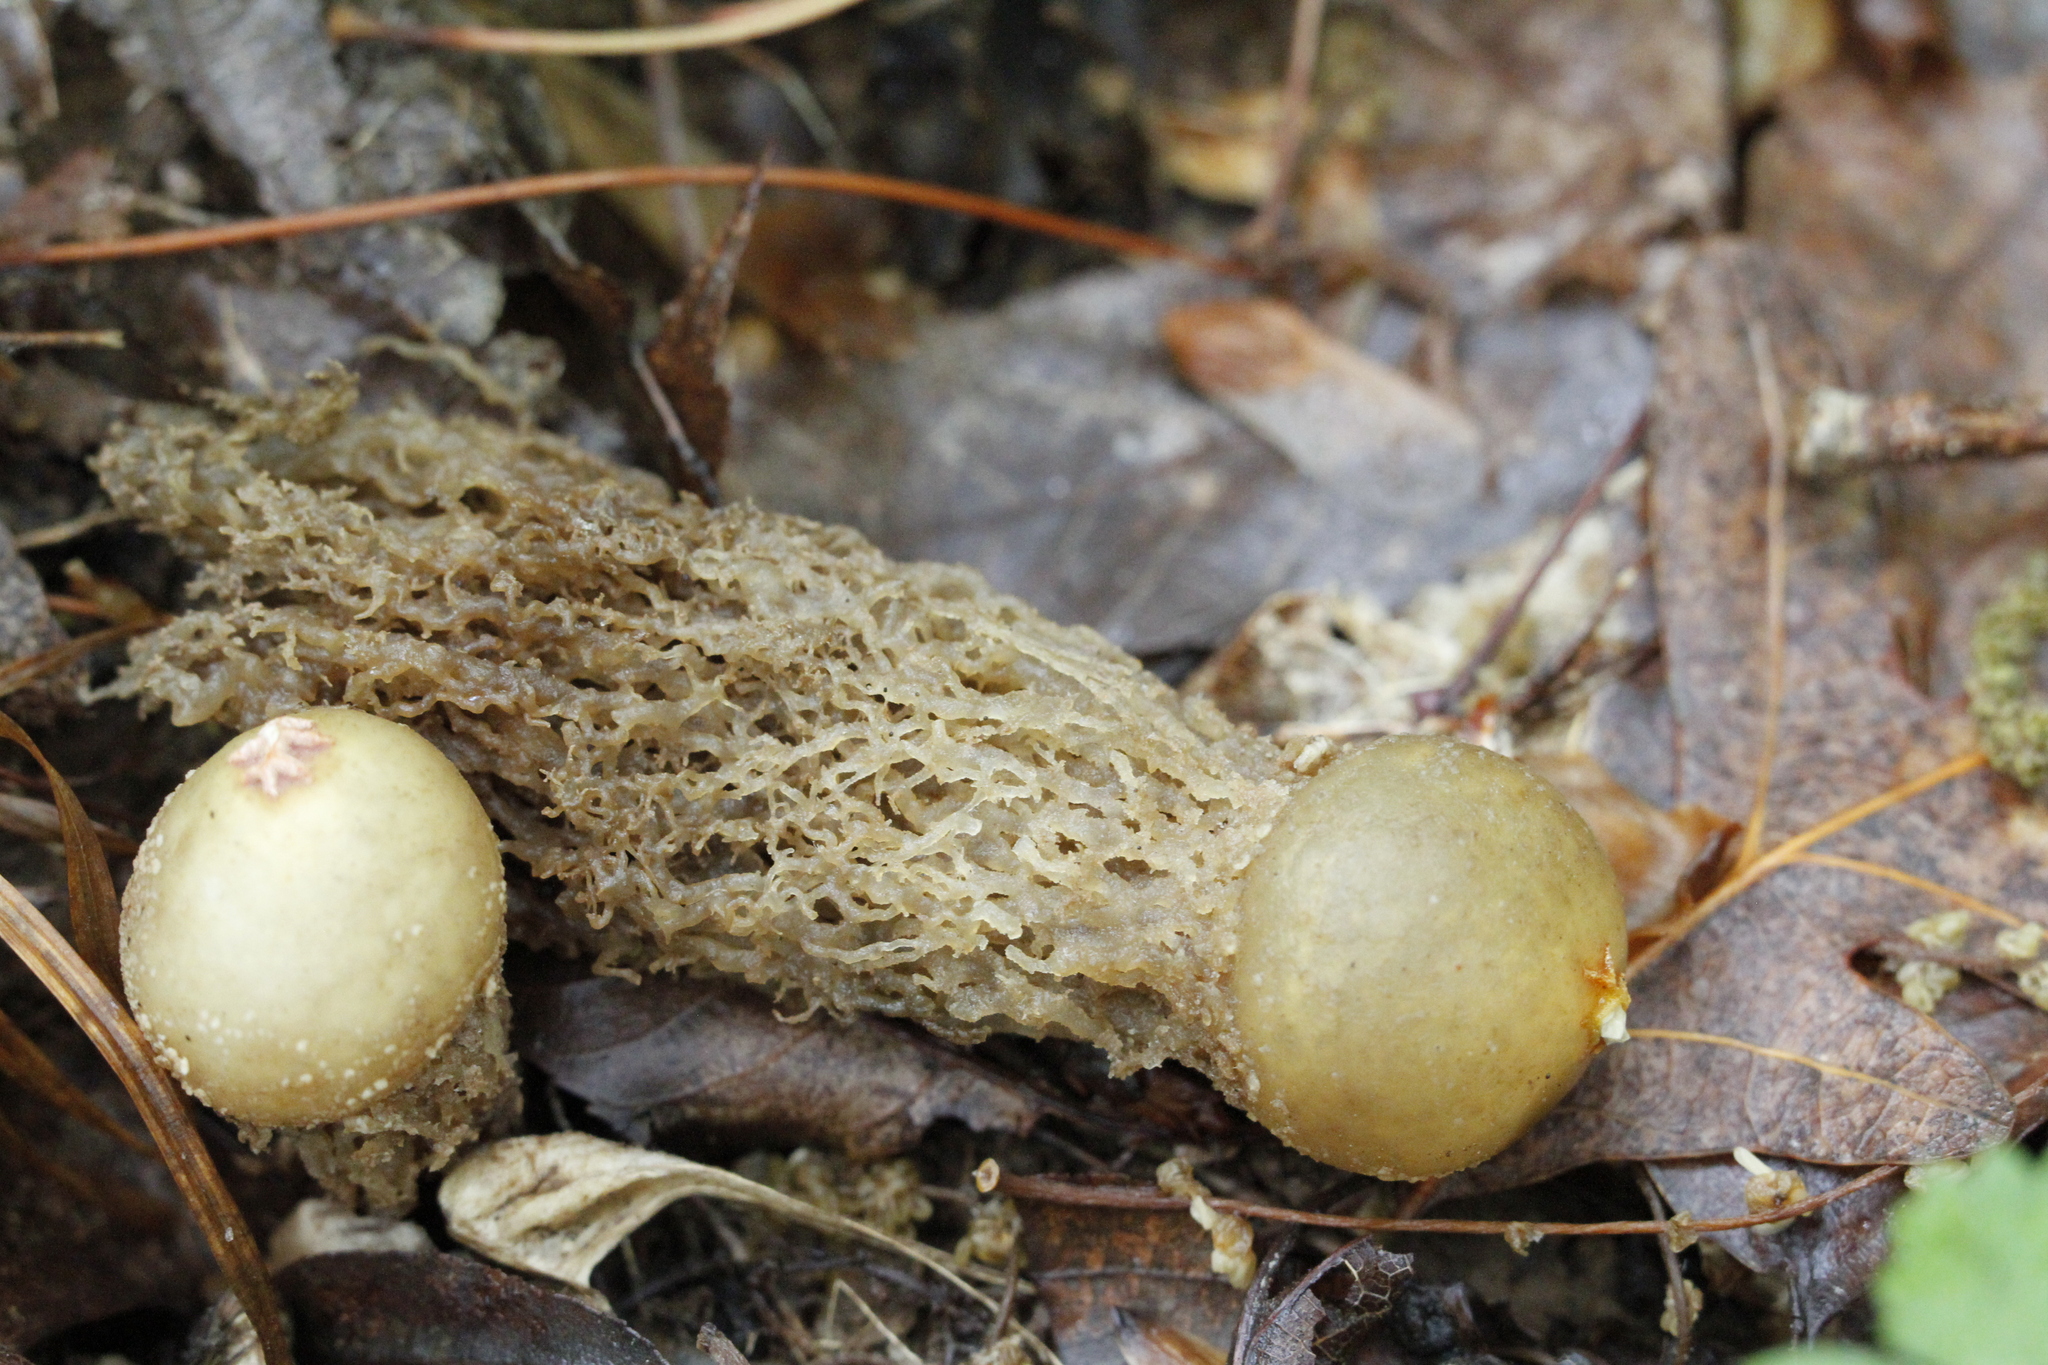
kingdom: Fungi
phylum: Basidiomycota
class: Agaricomycetes
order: Boletales
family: Calostomataceae
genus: Calostoma
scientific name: Calostoma ravenelii
